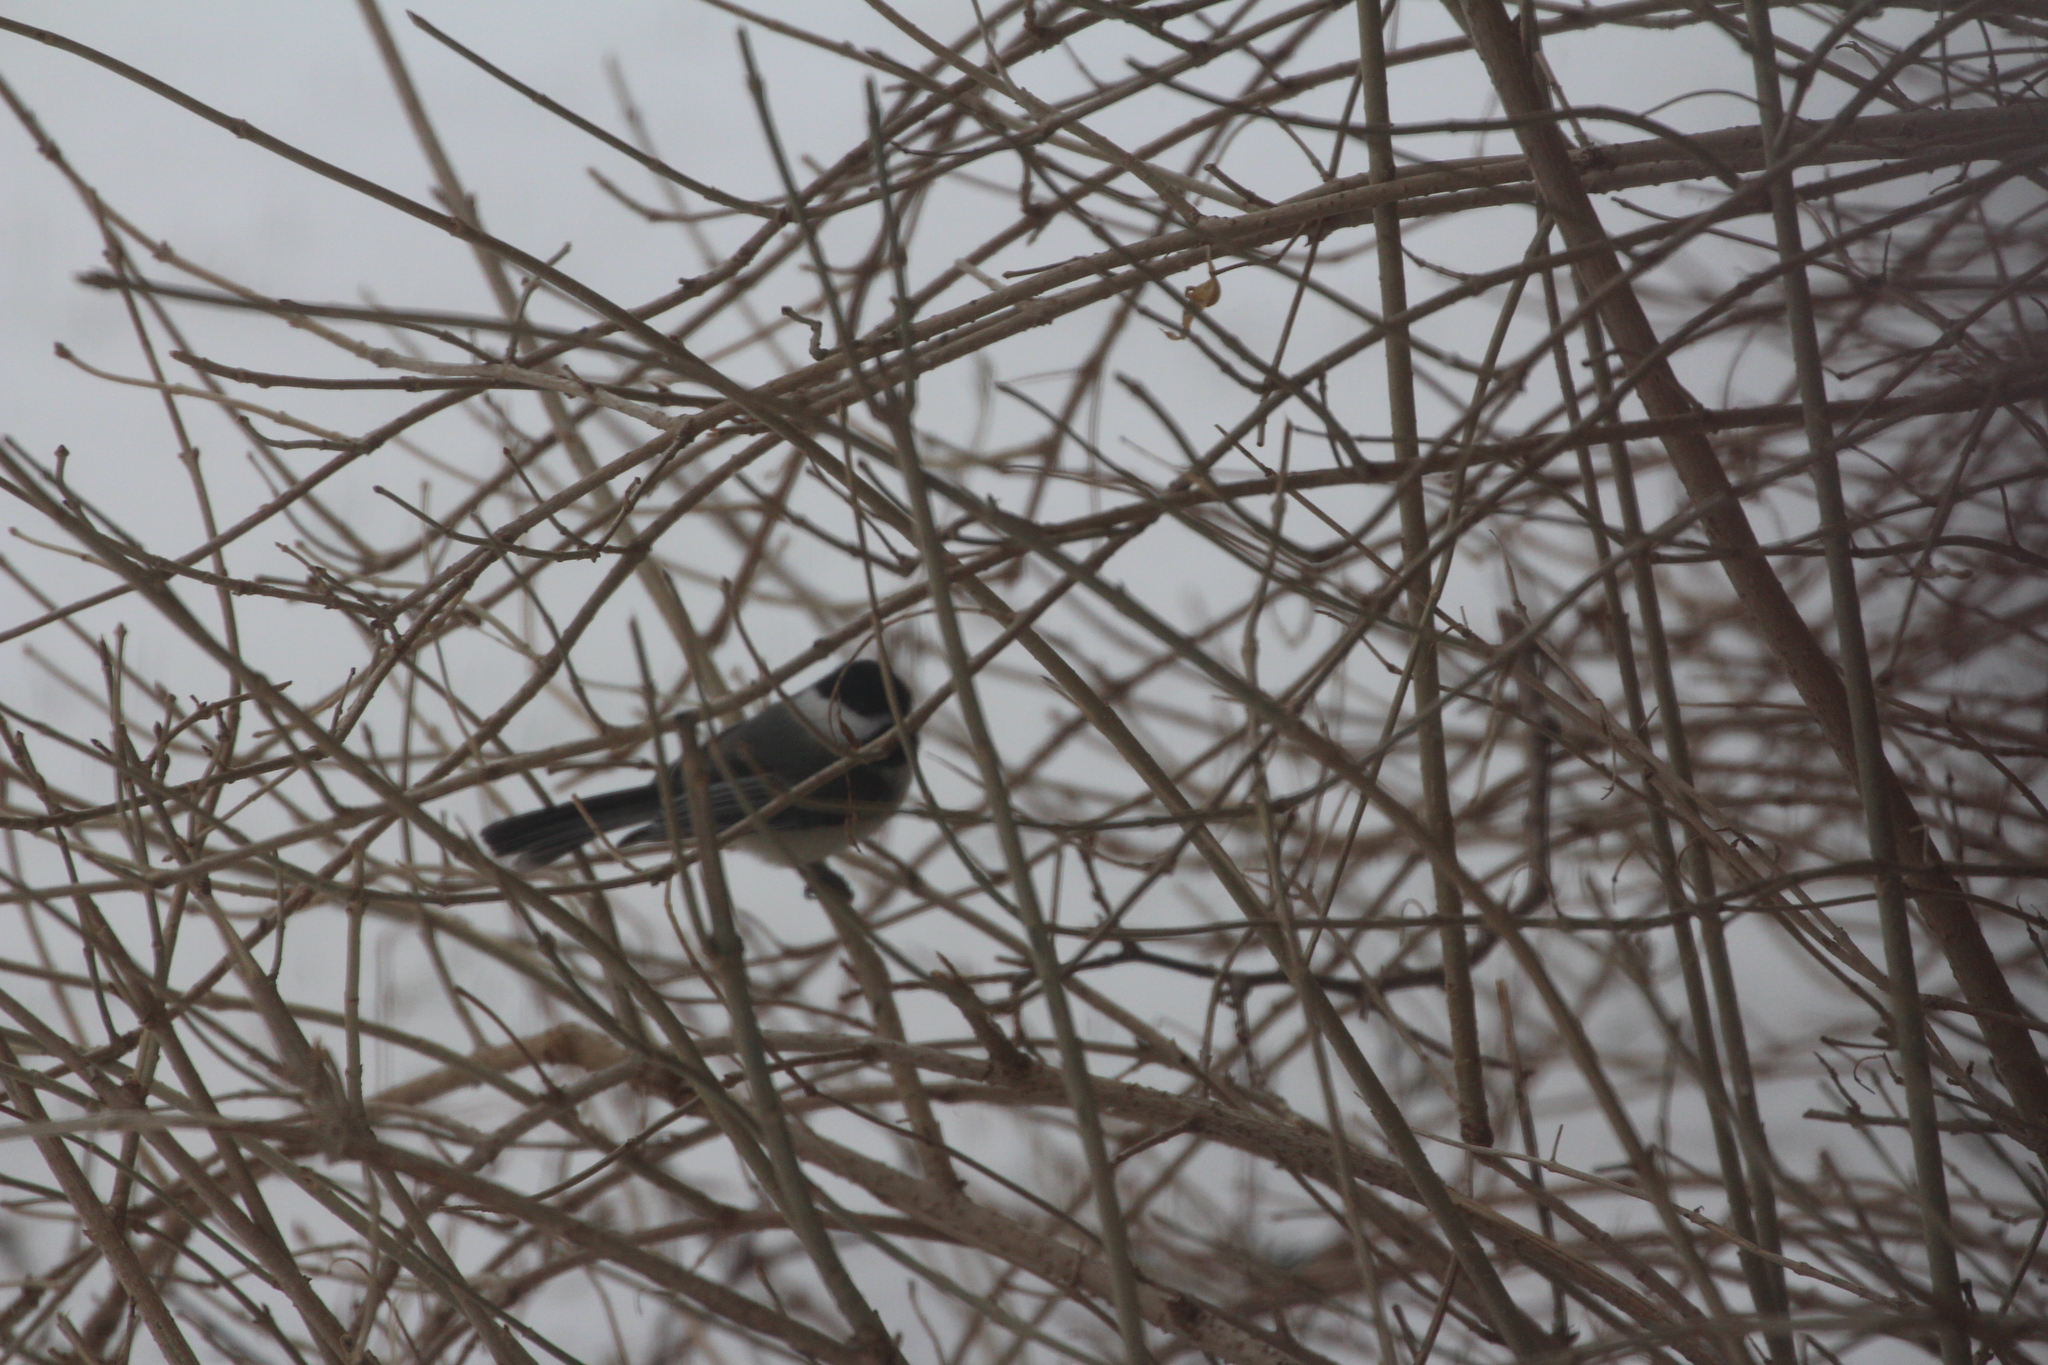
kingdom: Animalia
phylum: Chordata
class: Aves
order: Passeriformes
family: Paridae
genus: Poecile
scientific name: Poecile atricapillus
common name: Black-capped chickadee
